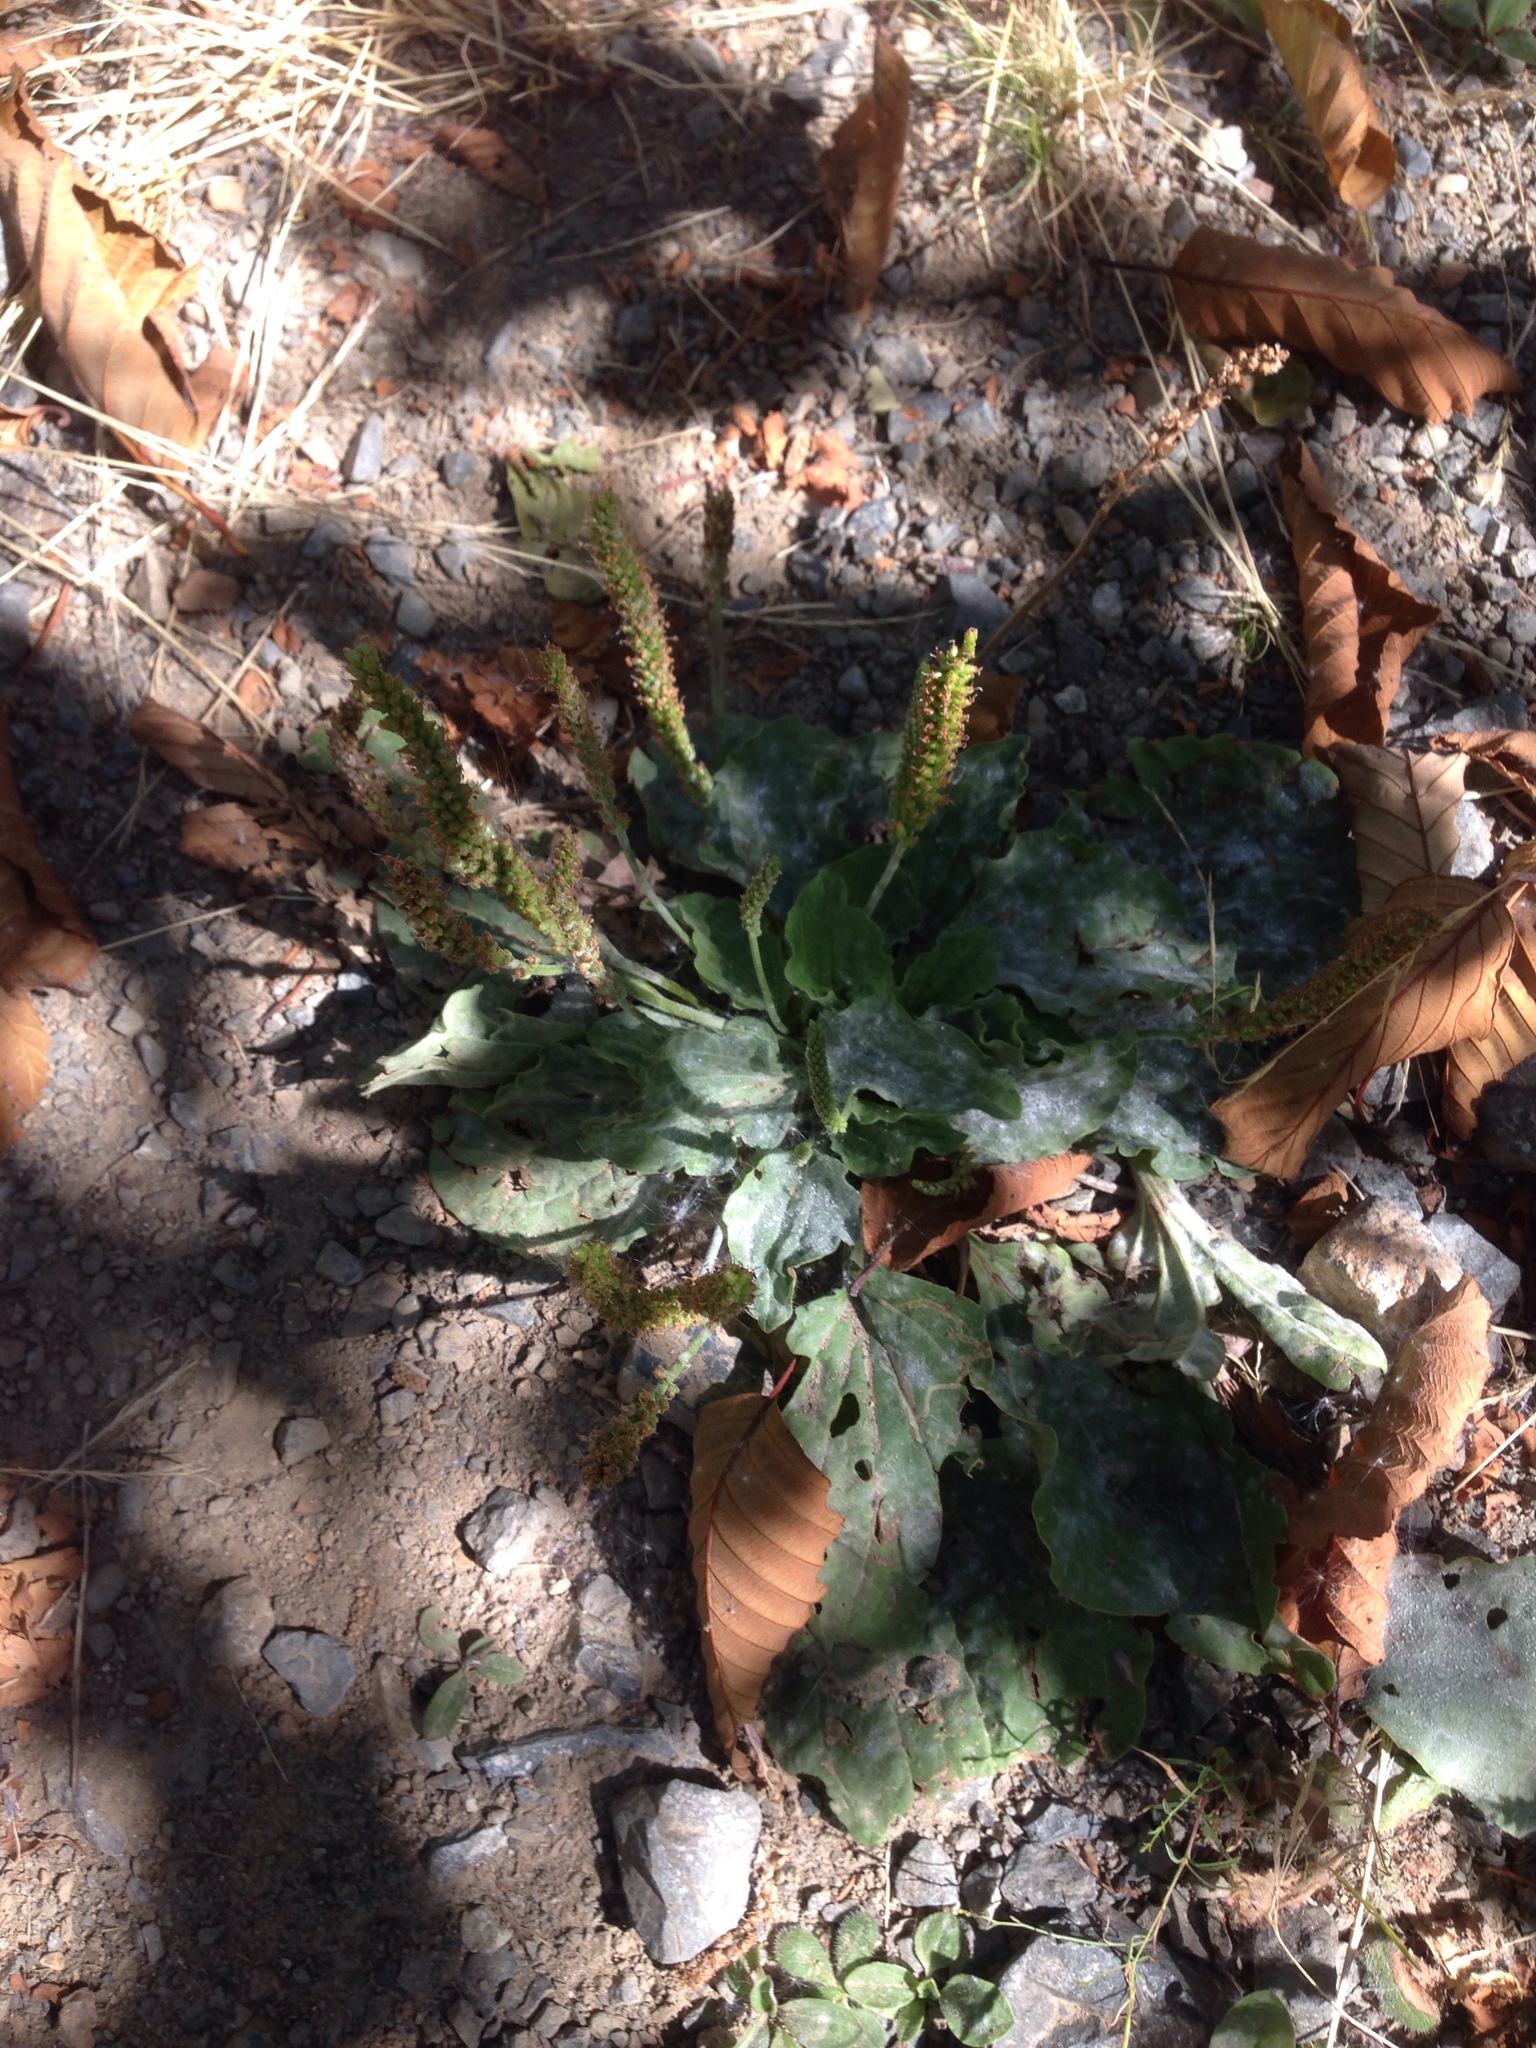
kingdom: Plantae
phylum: Tracheophyta
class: Magnoliopsida
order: Lamiales
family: Plantaginaceae
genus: Plantago
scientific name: Plantago major
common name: Common plantain
